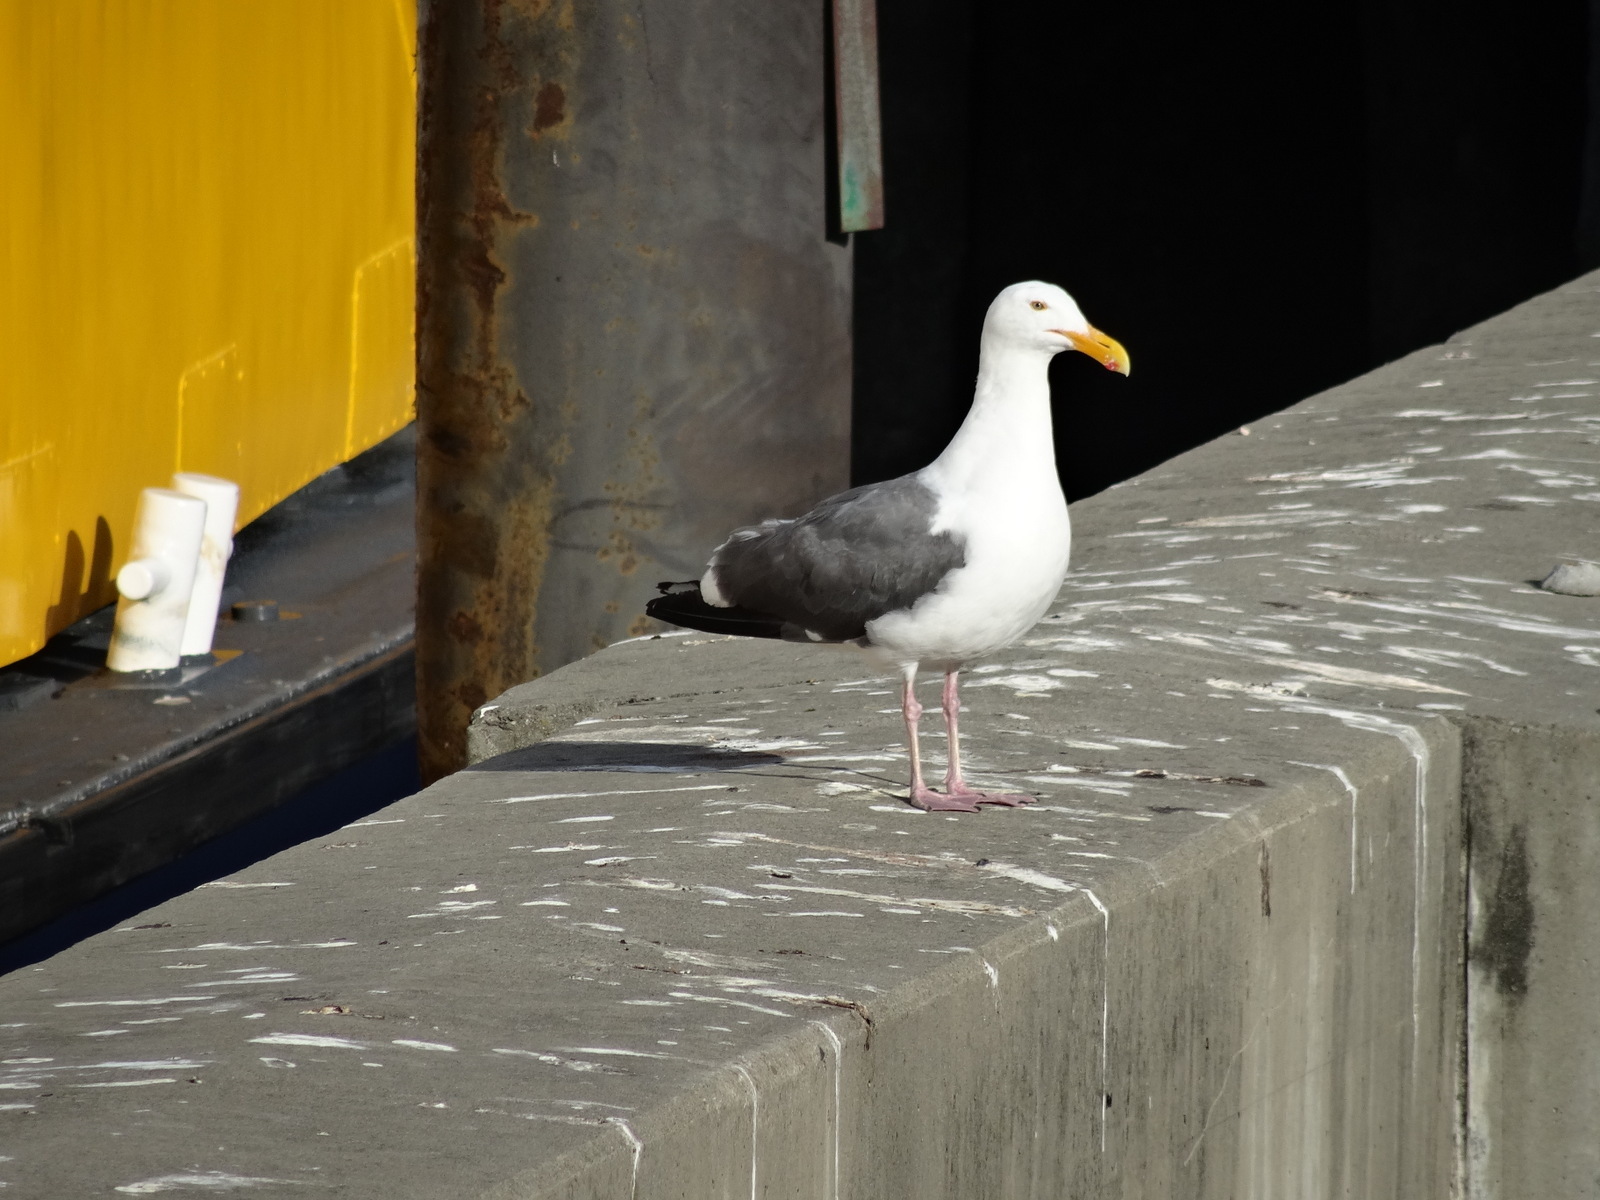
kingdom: Animalia
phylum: Chordata
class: Aves
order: Charadriiformes
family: Laridae
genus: Larus
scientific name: Larus occidentalis
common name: Western gull
